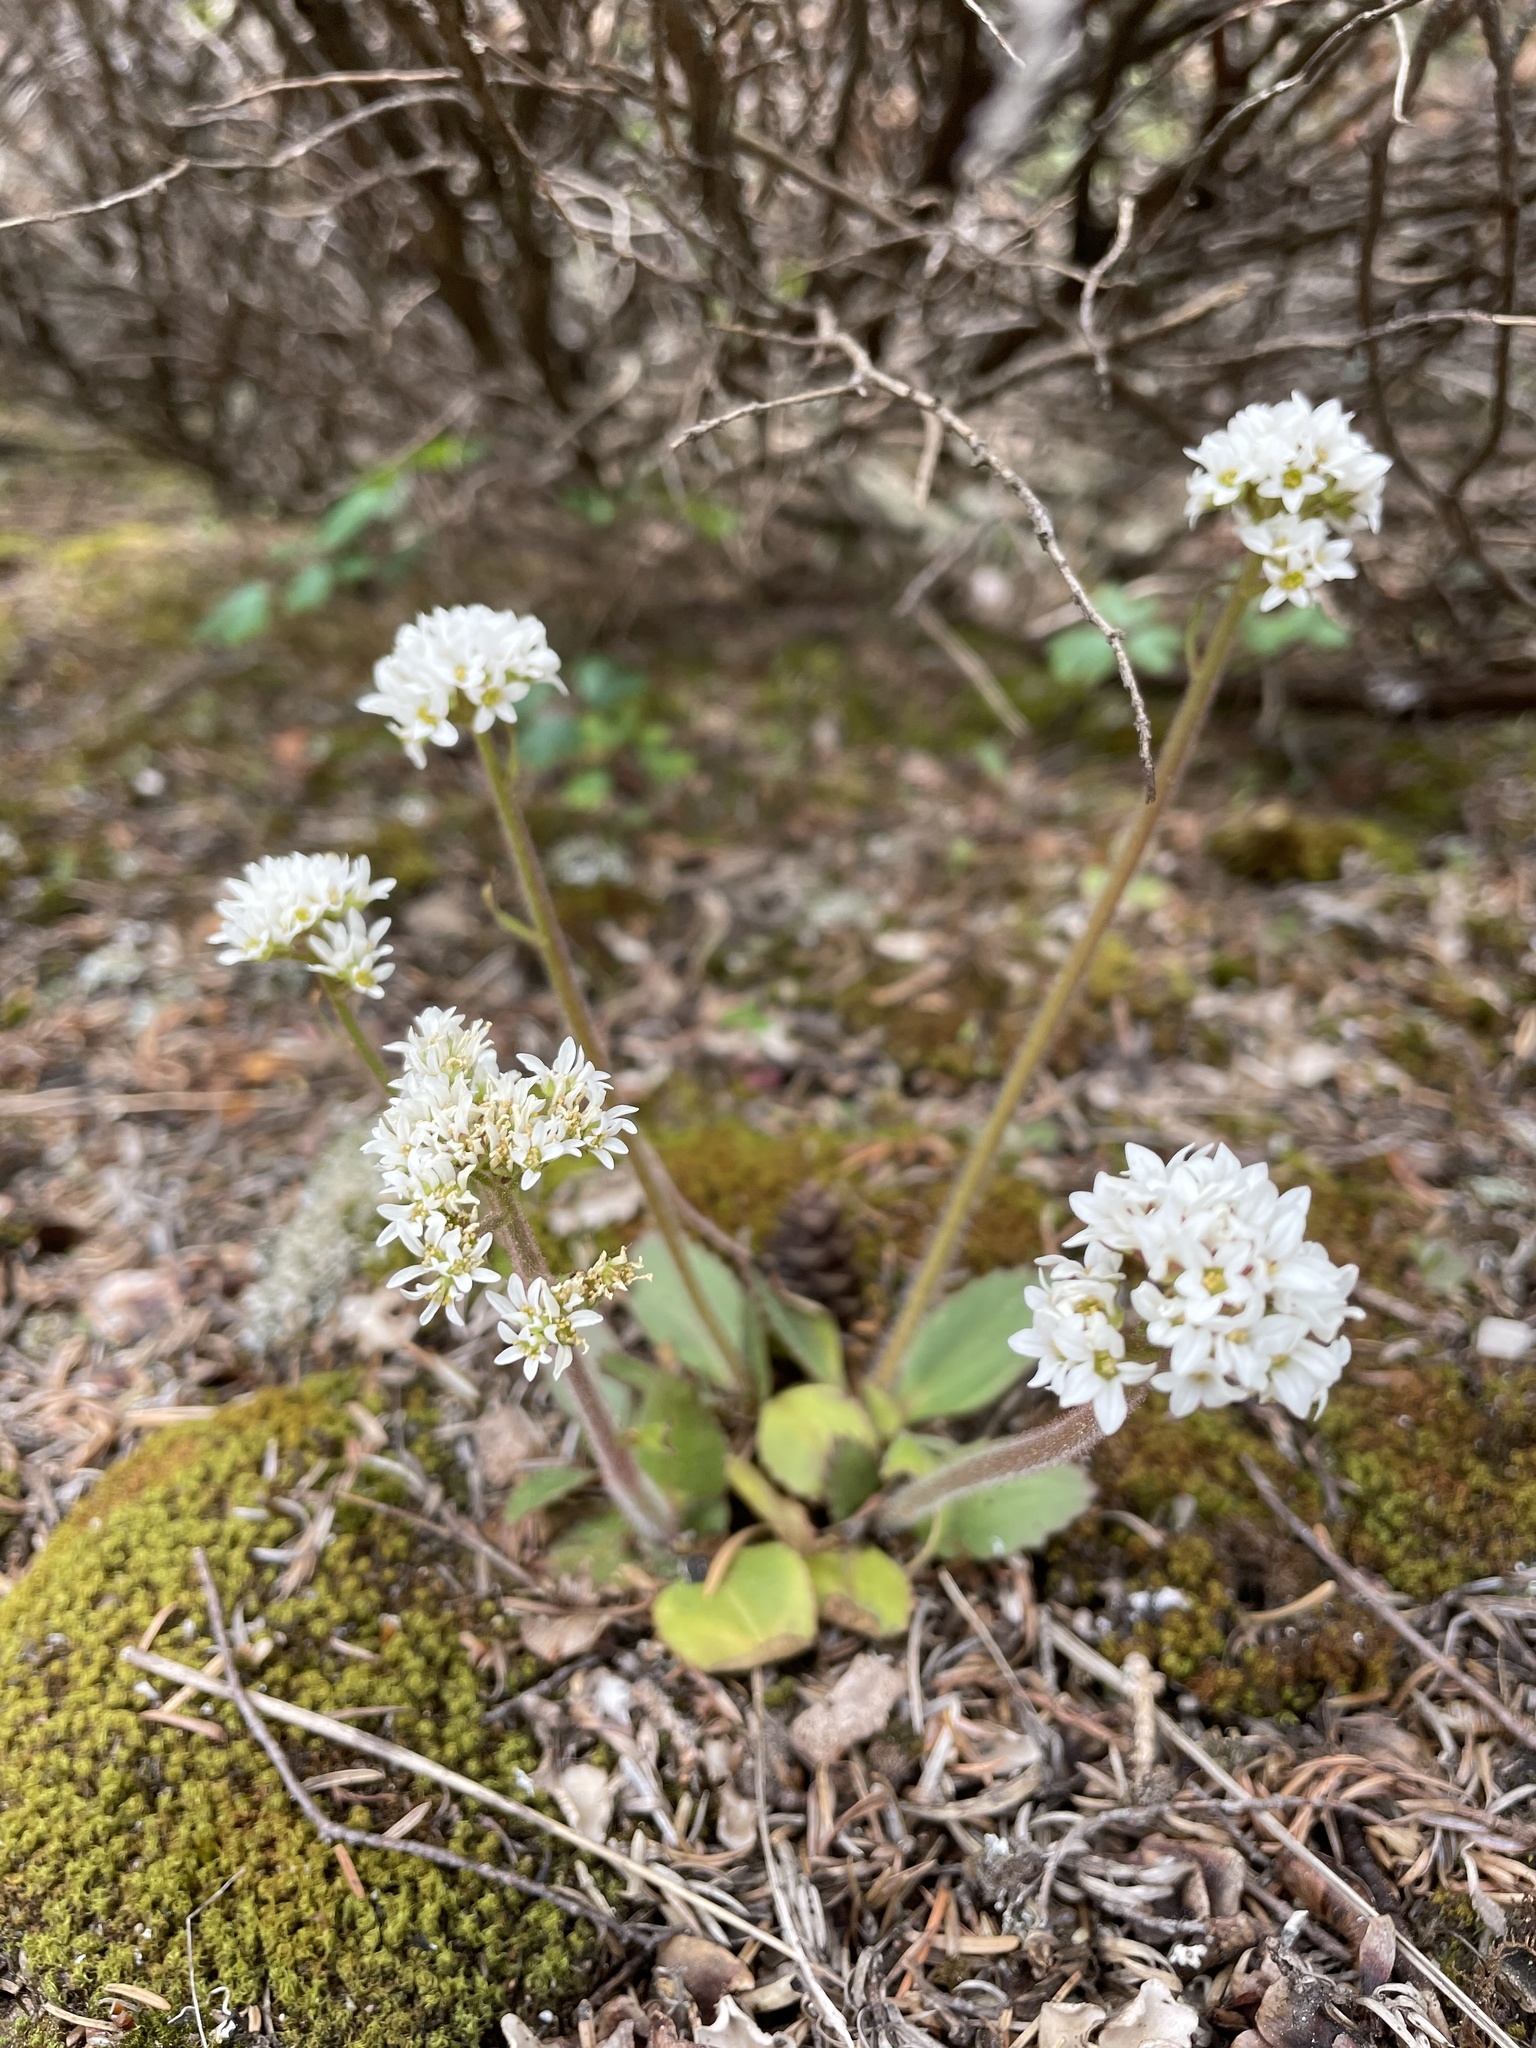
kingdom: Plantae
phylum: Tracheophyta
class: Magnoliopsida
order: Saxifragales
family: Saxifragaceae
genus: Micranthes
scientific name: Micranthes virginiensis
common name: Early saxifrage
